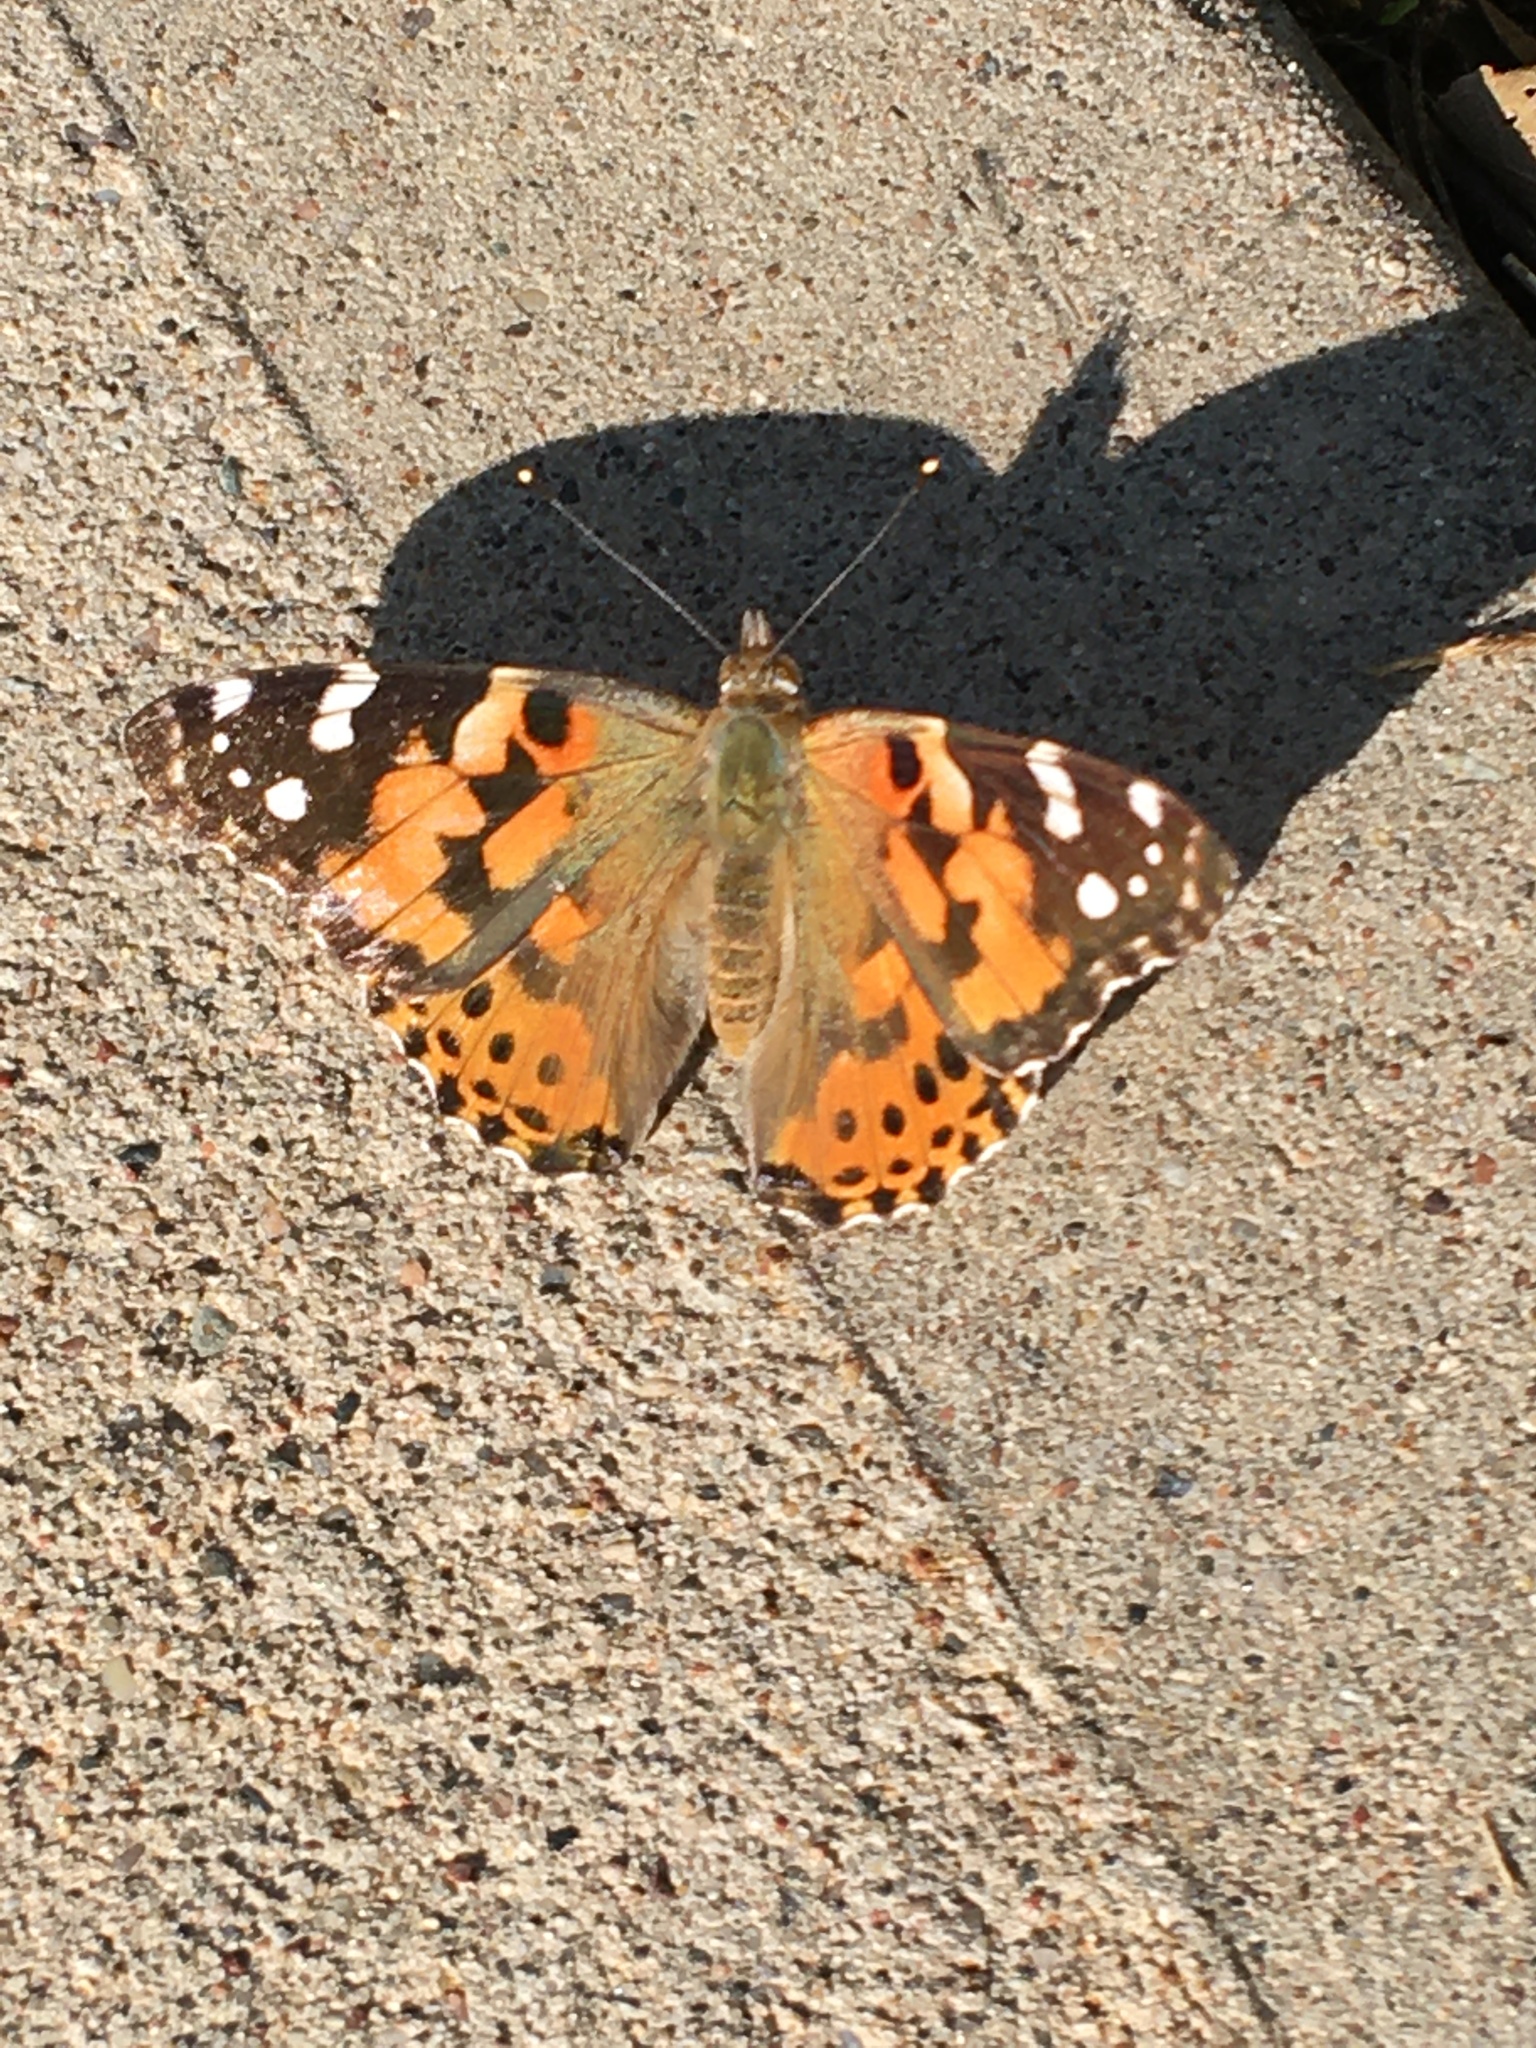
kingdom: Animalia
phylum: Arthropoda
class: Insecta
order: Lepidoptera
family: Nymphalidae
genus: Vanessa
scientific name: Vanessa cardui
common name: Painted lady
